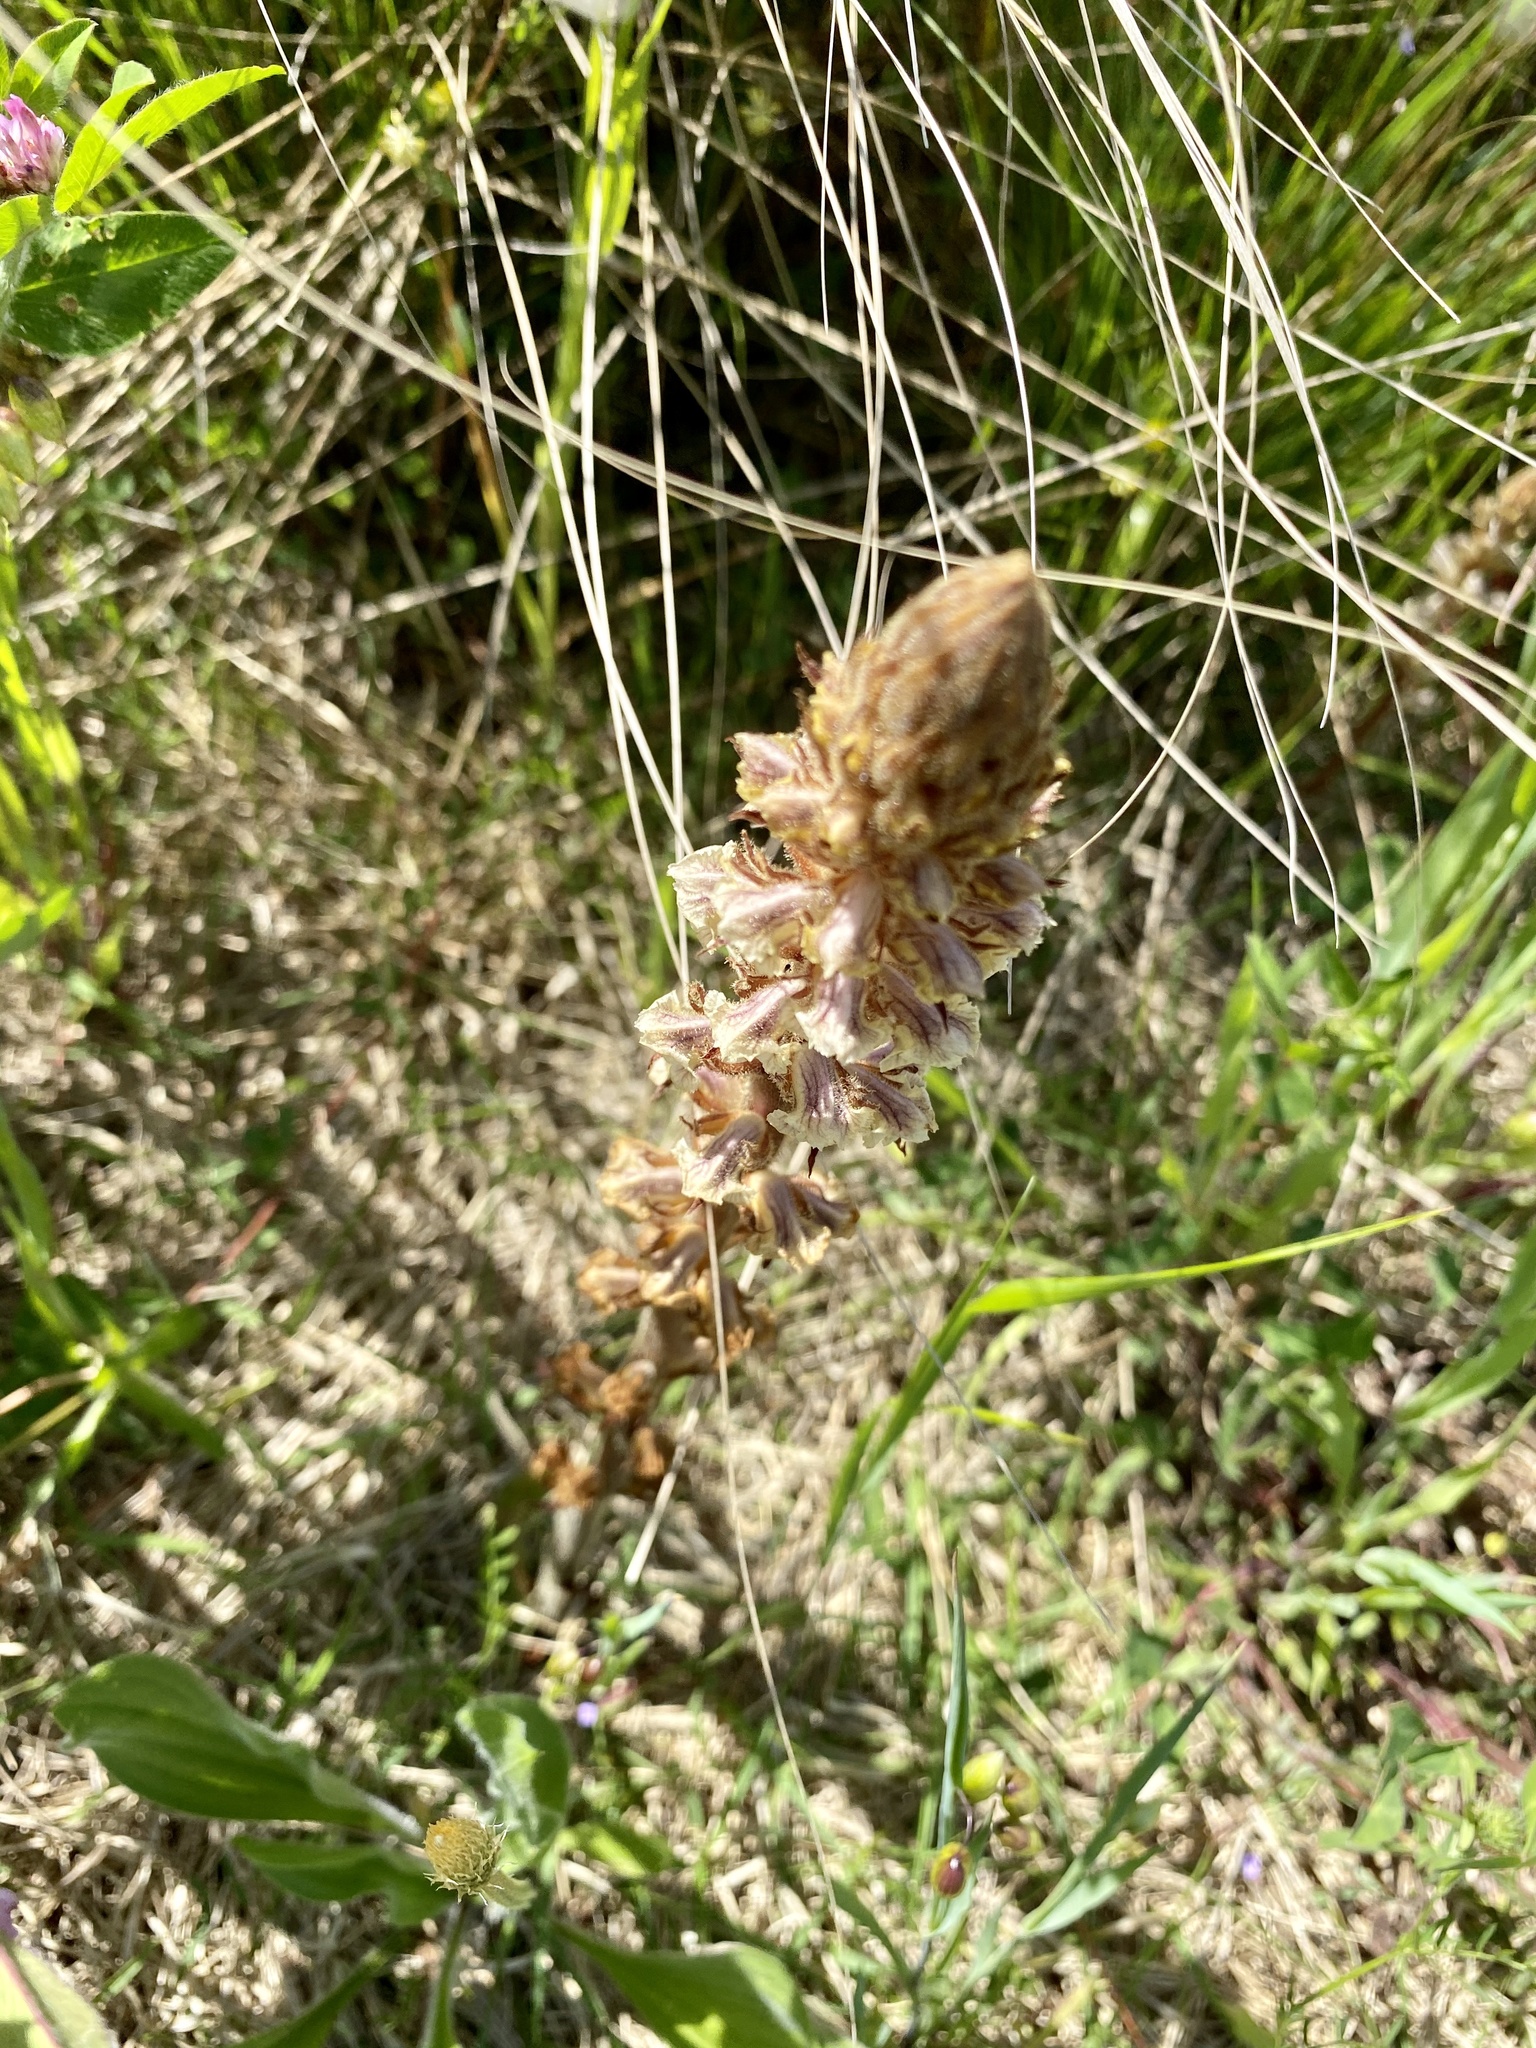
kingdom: Plantae
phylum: Tracheophyta
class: Magnoliopsida
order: Lamiales
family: Orobanchaceae
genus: Orobanche
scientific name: Orobanche minor
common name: Common broomrape
